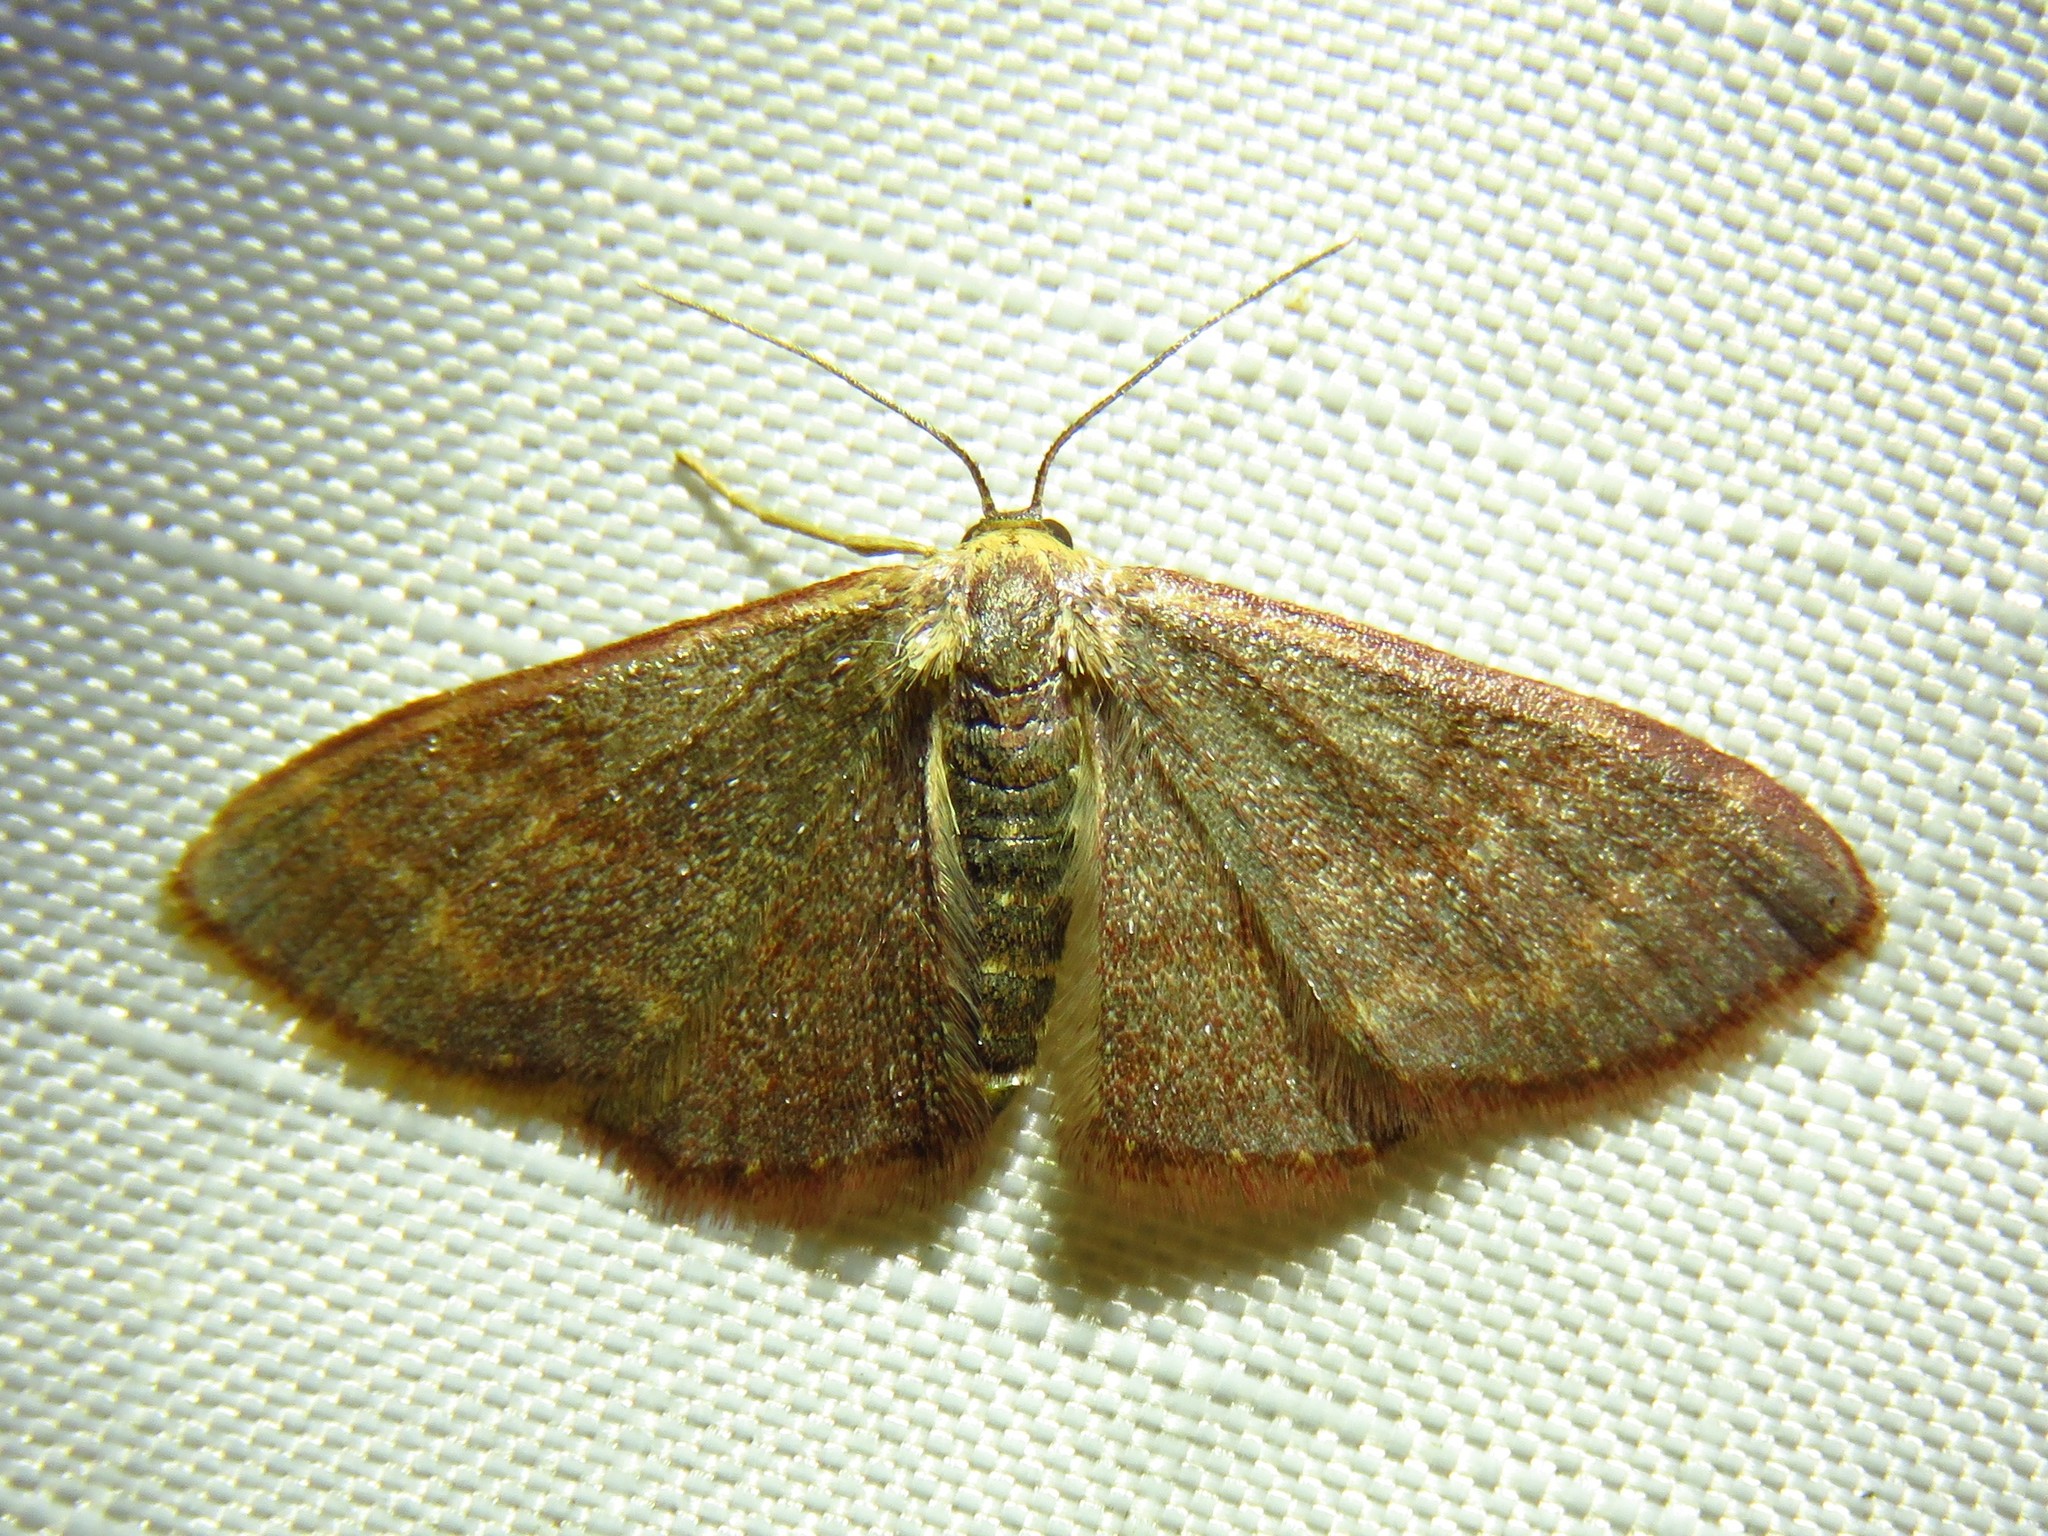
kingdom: Animalia
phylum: Arthropoda
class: Insecta
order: Lepidoptera
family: Geometridae
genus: Leptostales
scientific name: Leptostales pannaria
